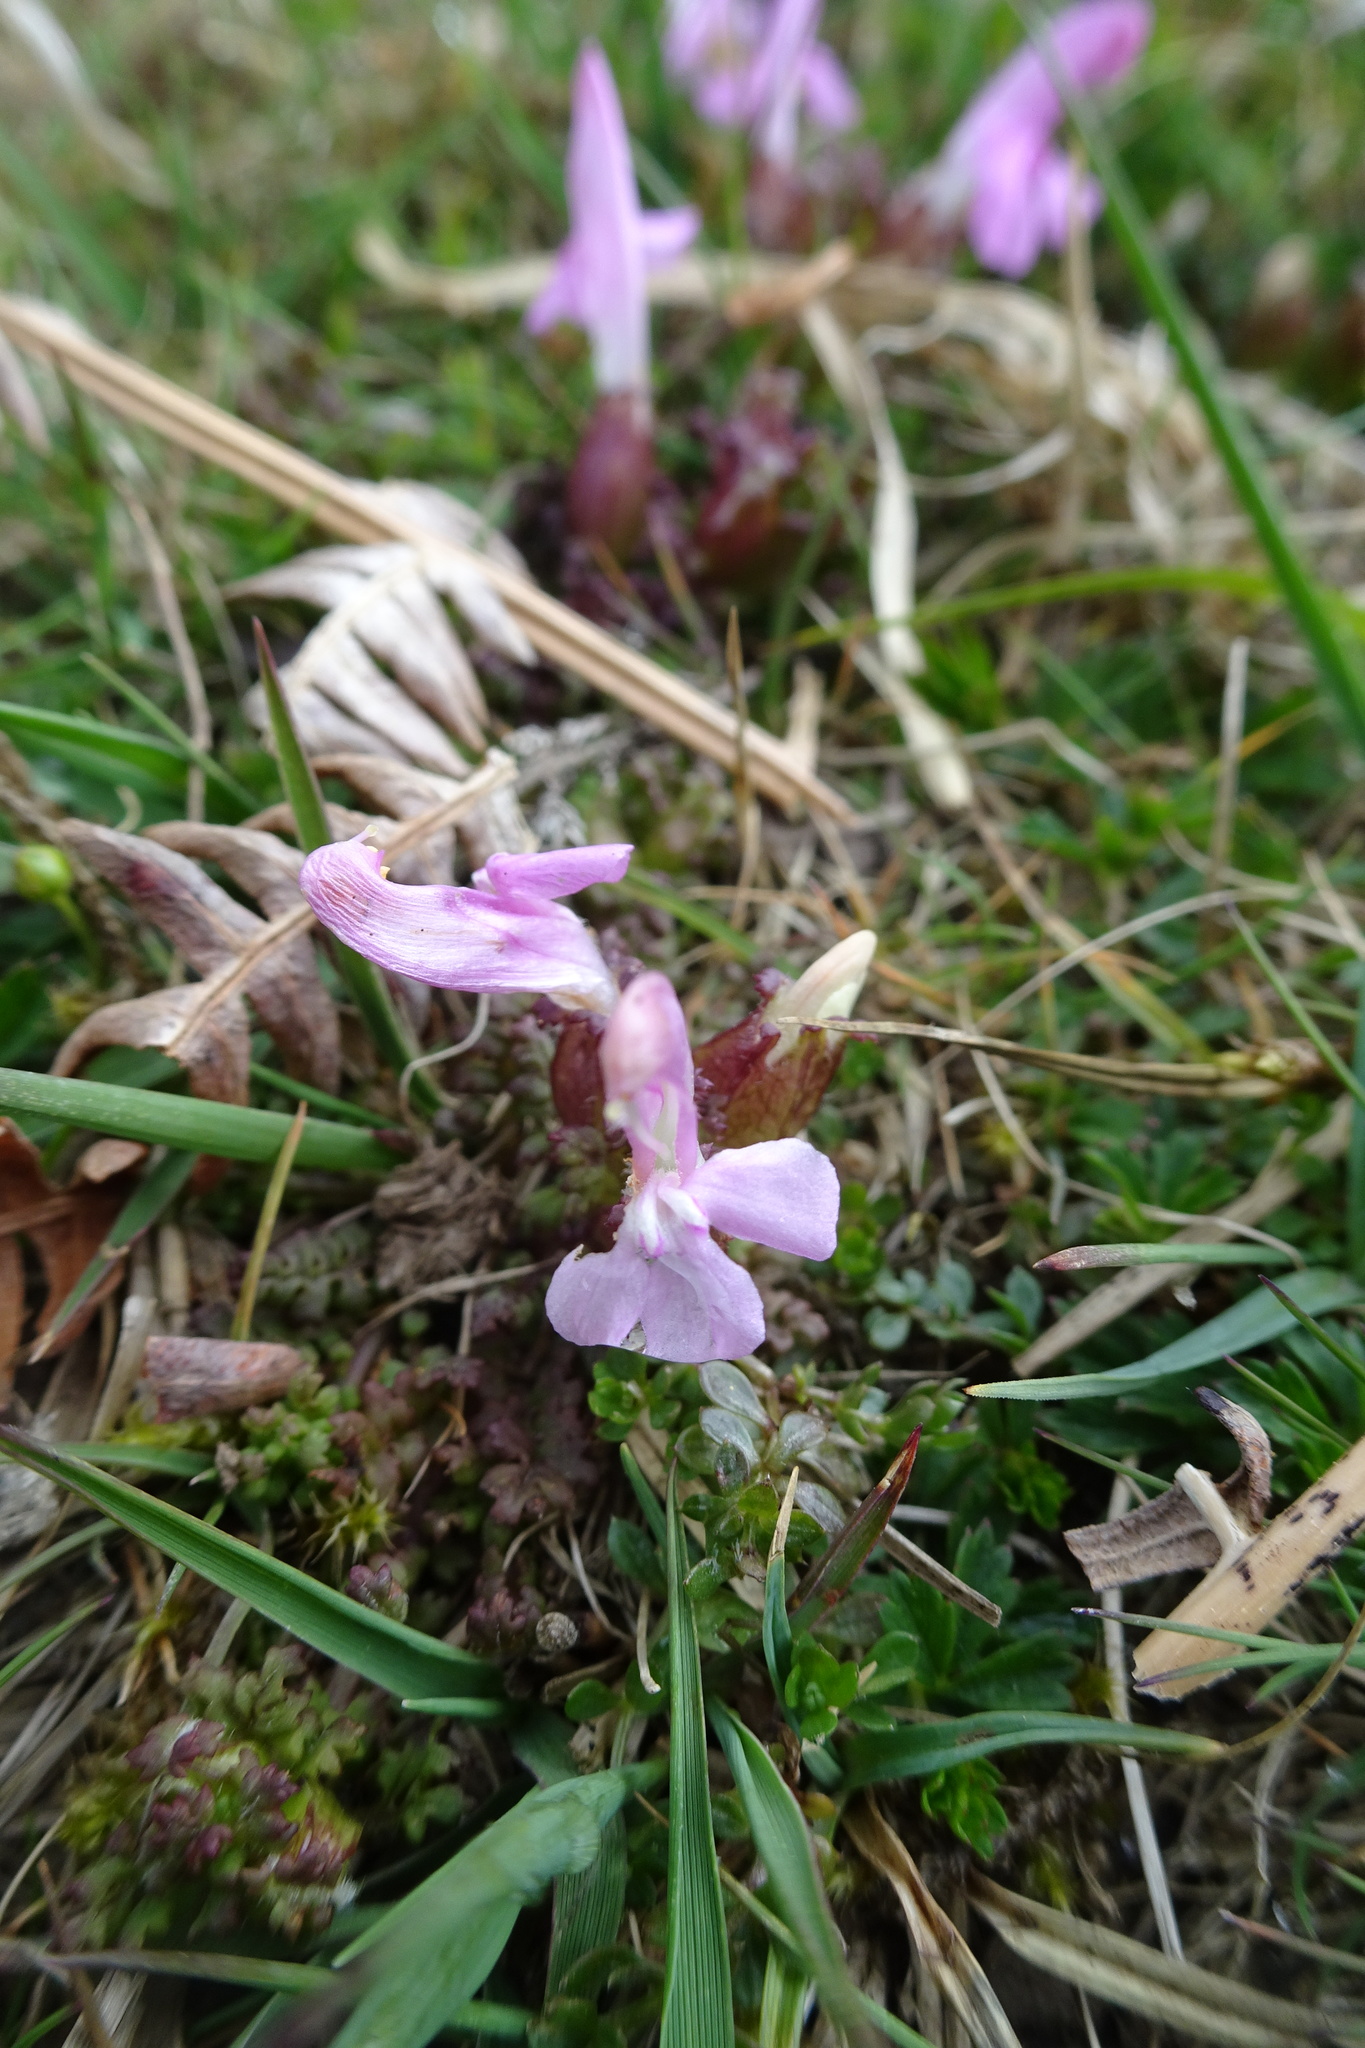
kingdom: Plantae
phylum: Tracheophyta
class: Magnoliopsida
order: Lamiales
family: Orobanchaceae
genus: Pedicularis
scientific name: Pedicularis sylvatica
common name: Lousewort
